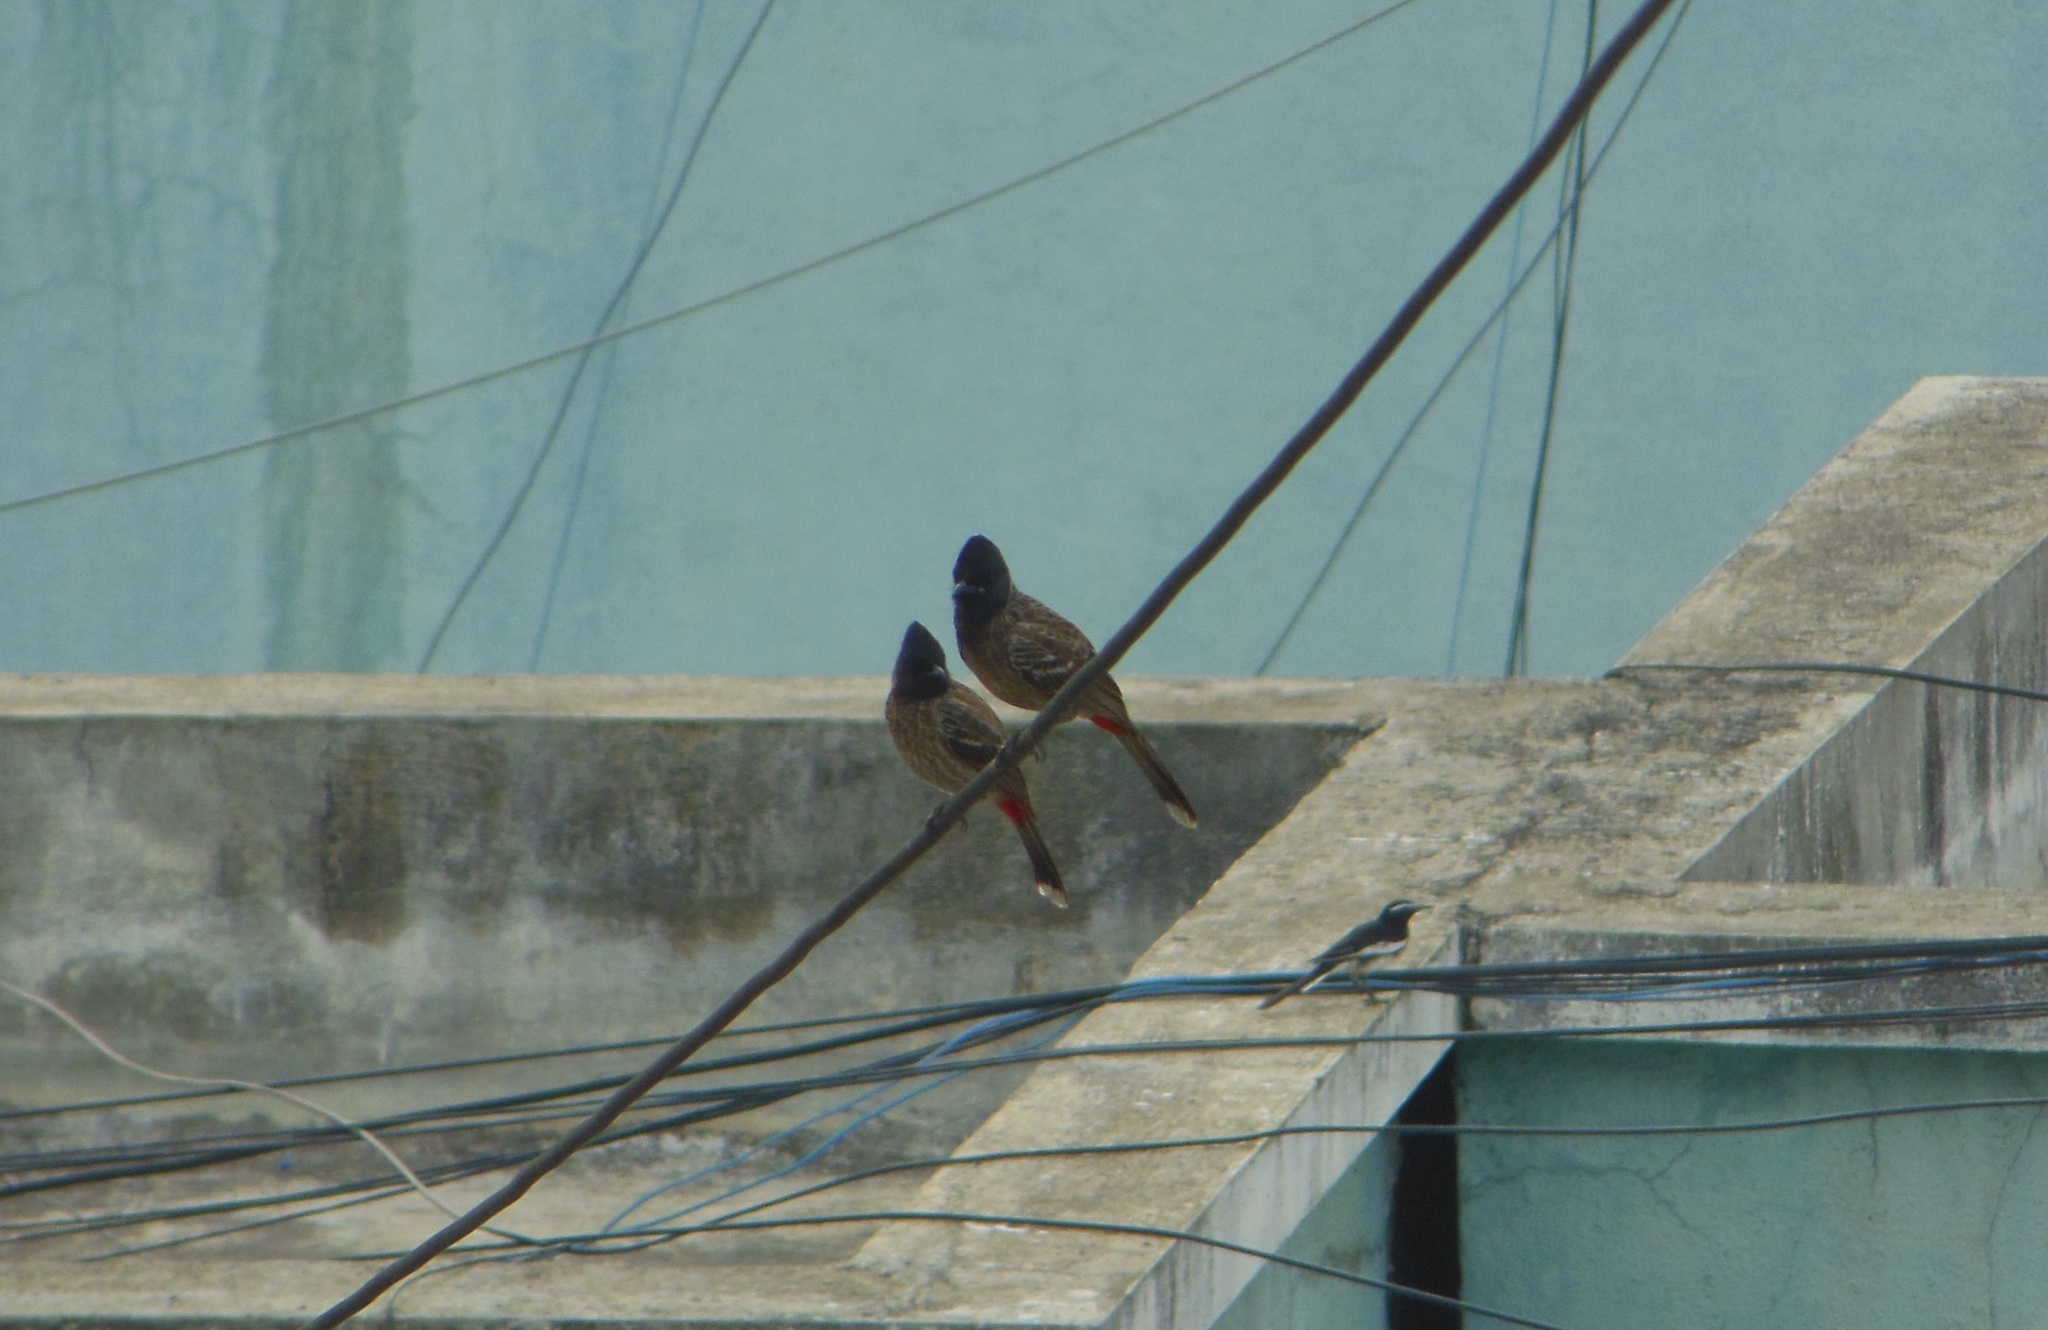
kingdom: Animalia
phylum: Chordata
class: Aves
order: Passeriformes
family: Pycnonotidae
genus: Pycnonotus
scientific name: Pycnonotus cafer
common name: Red-vented bulbul
